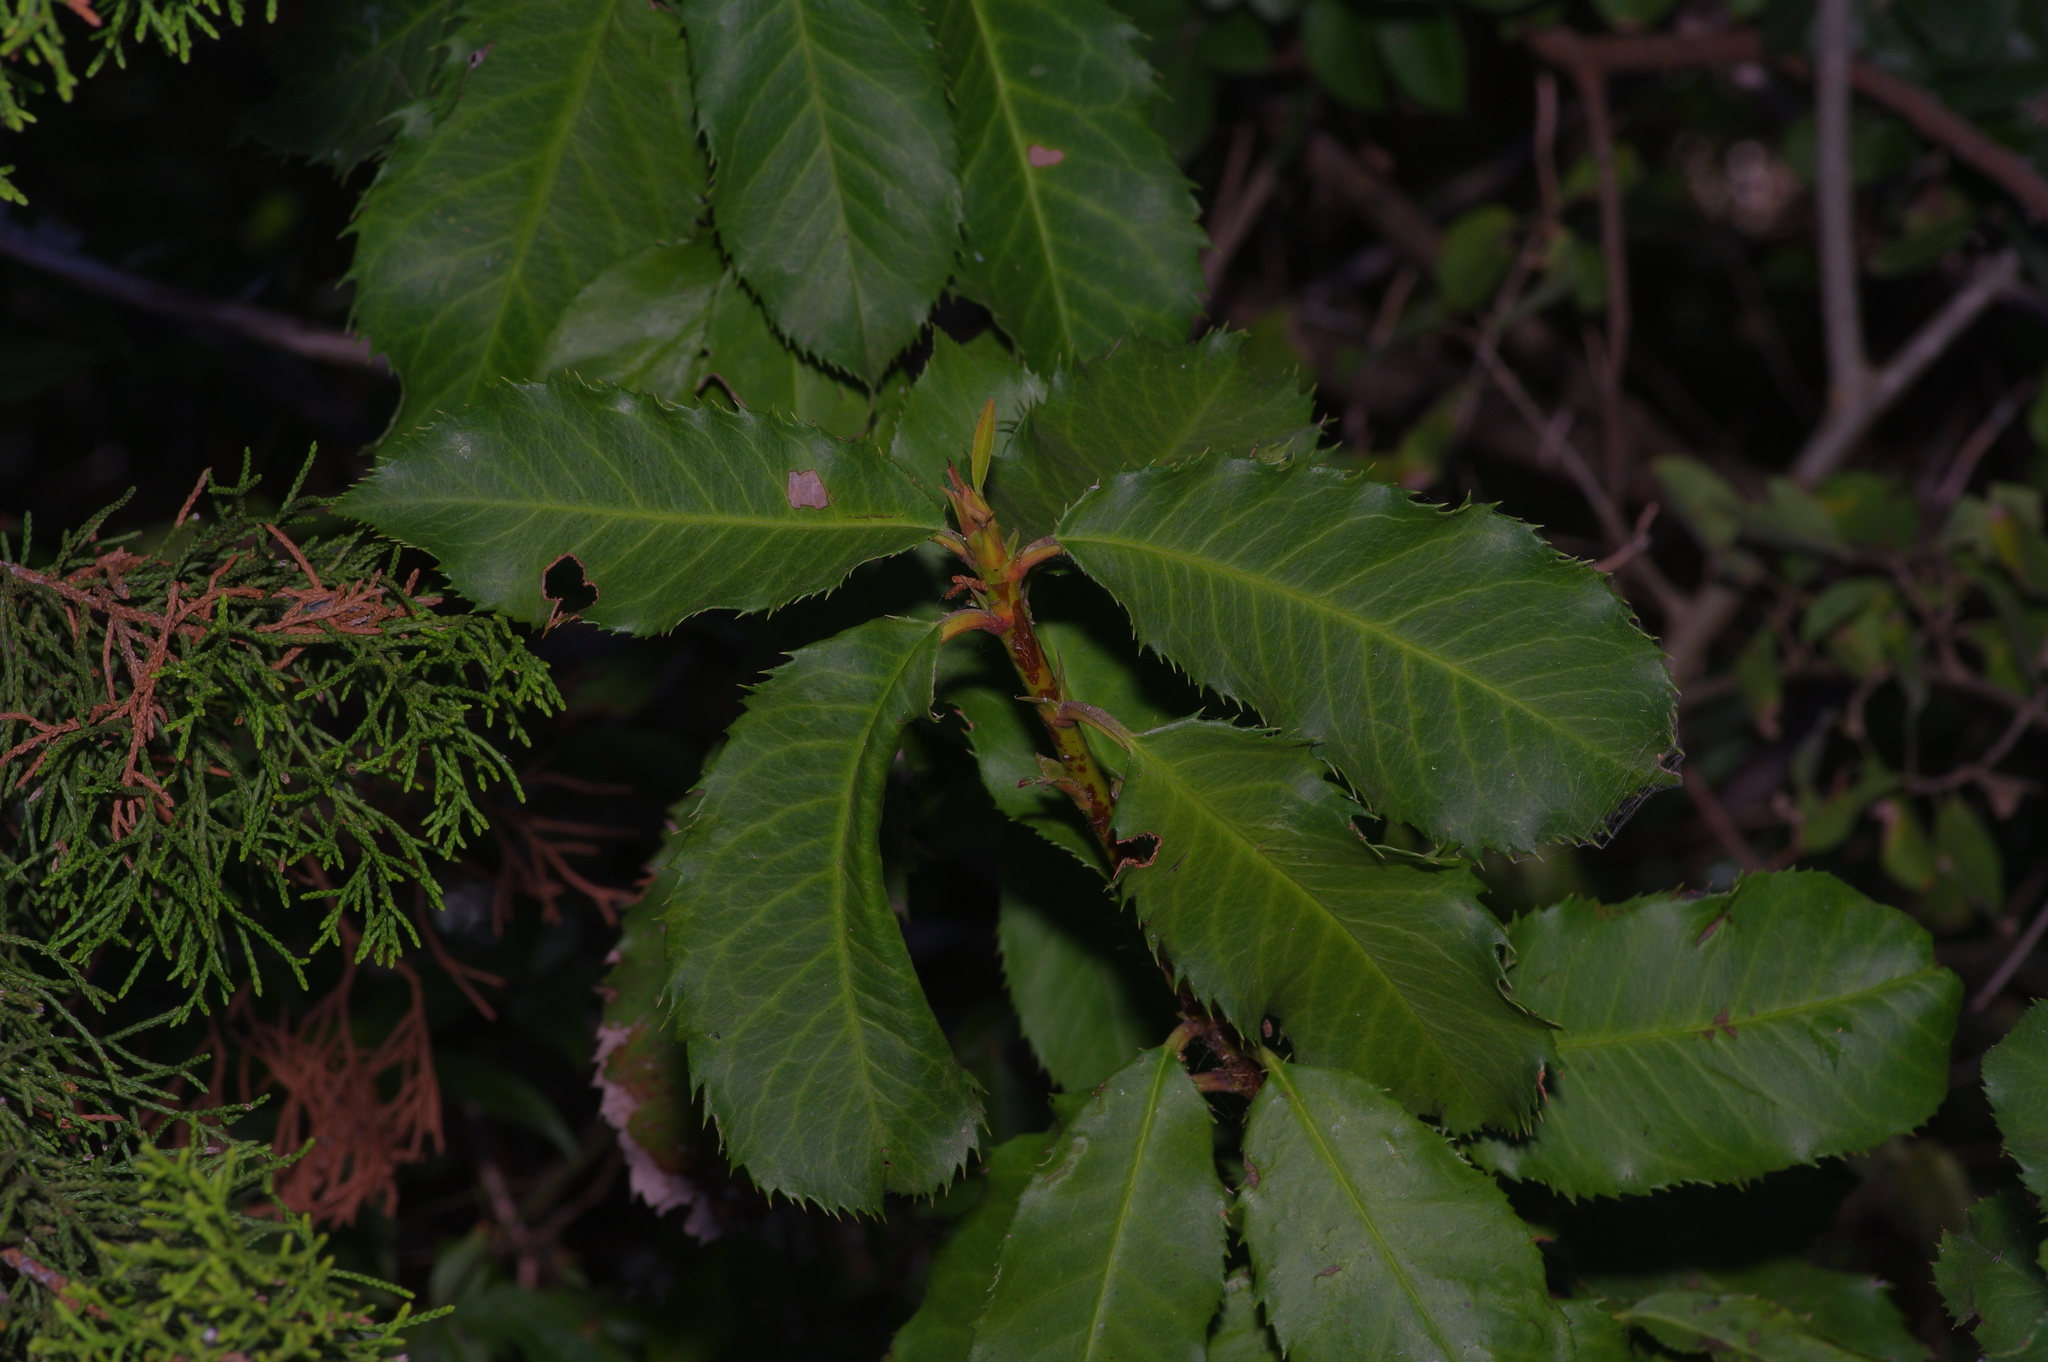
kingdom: Plantae
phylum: Tracheophyta
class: Magnoliopsida
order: Rosales
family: Rosaceae
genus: Photinia
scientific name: Photinia serratifolia
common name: Taiwanese photinia
